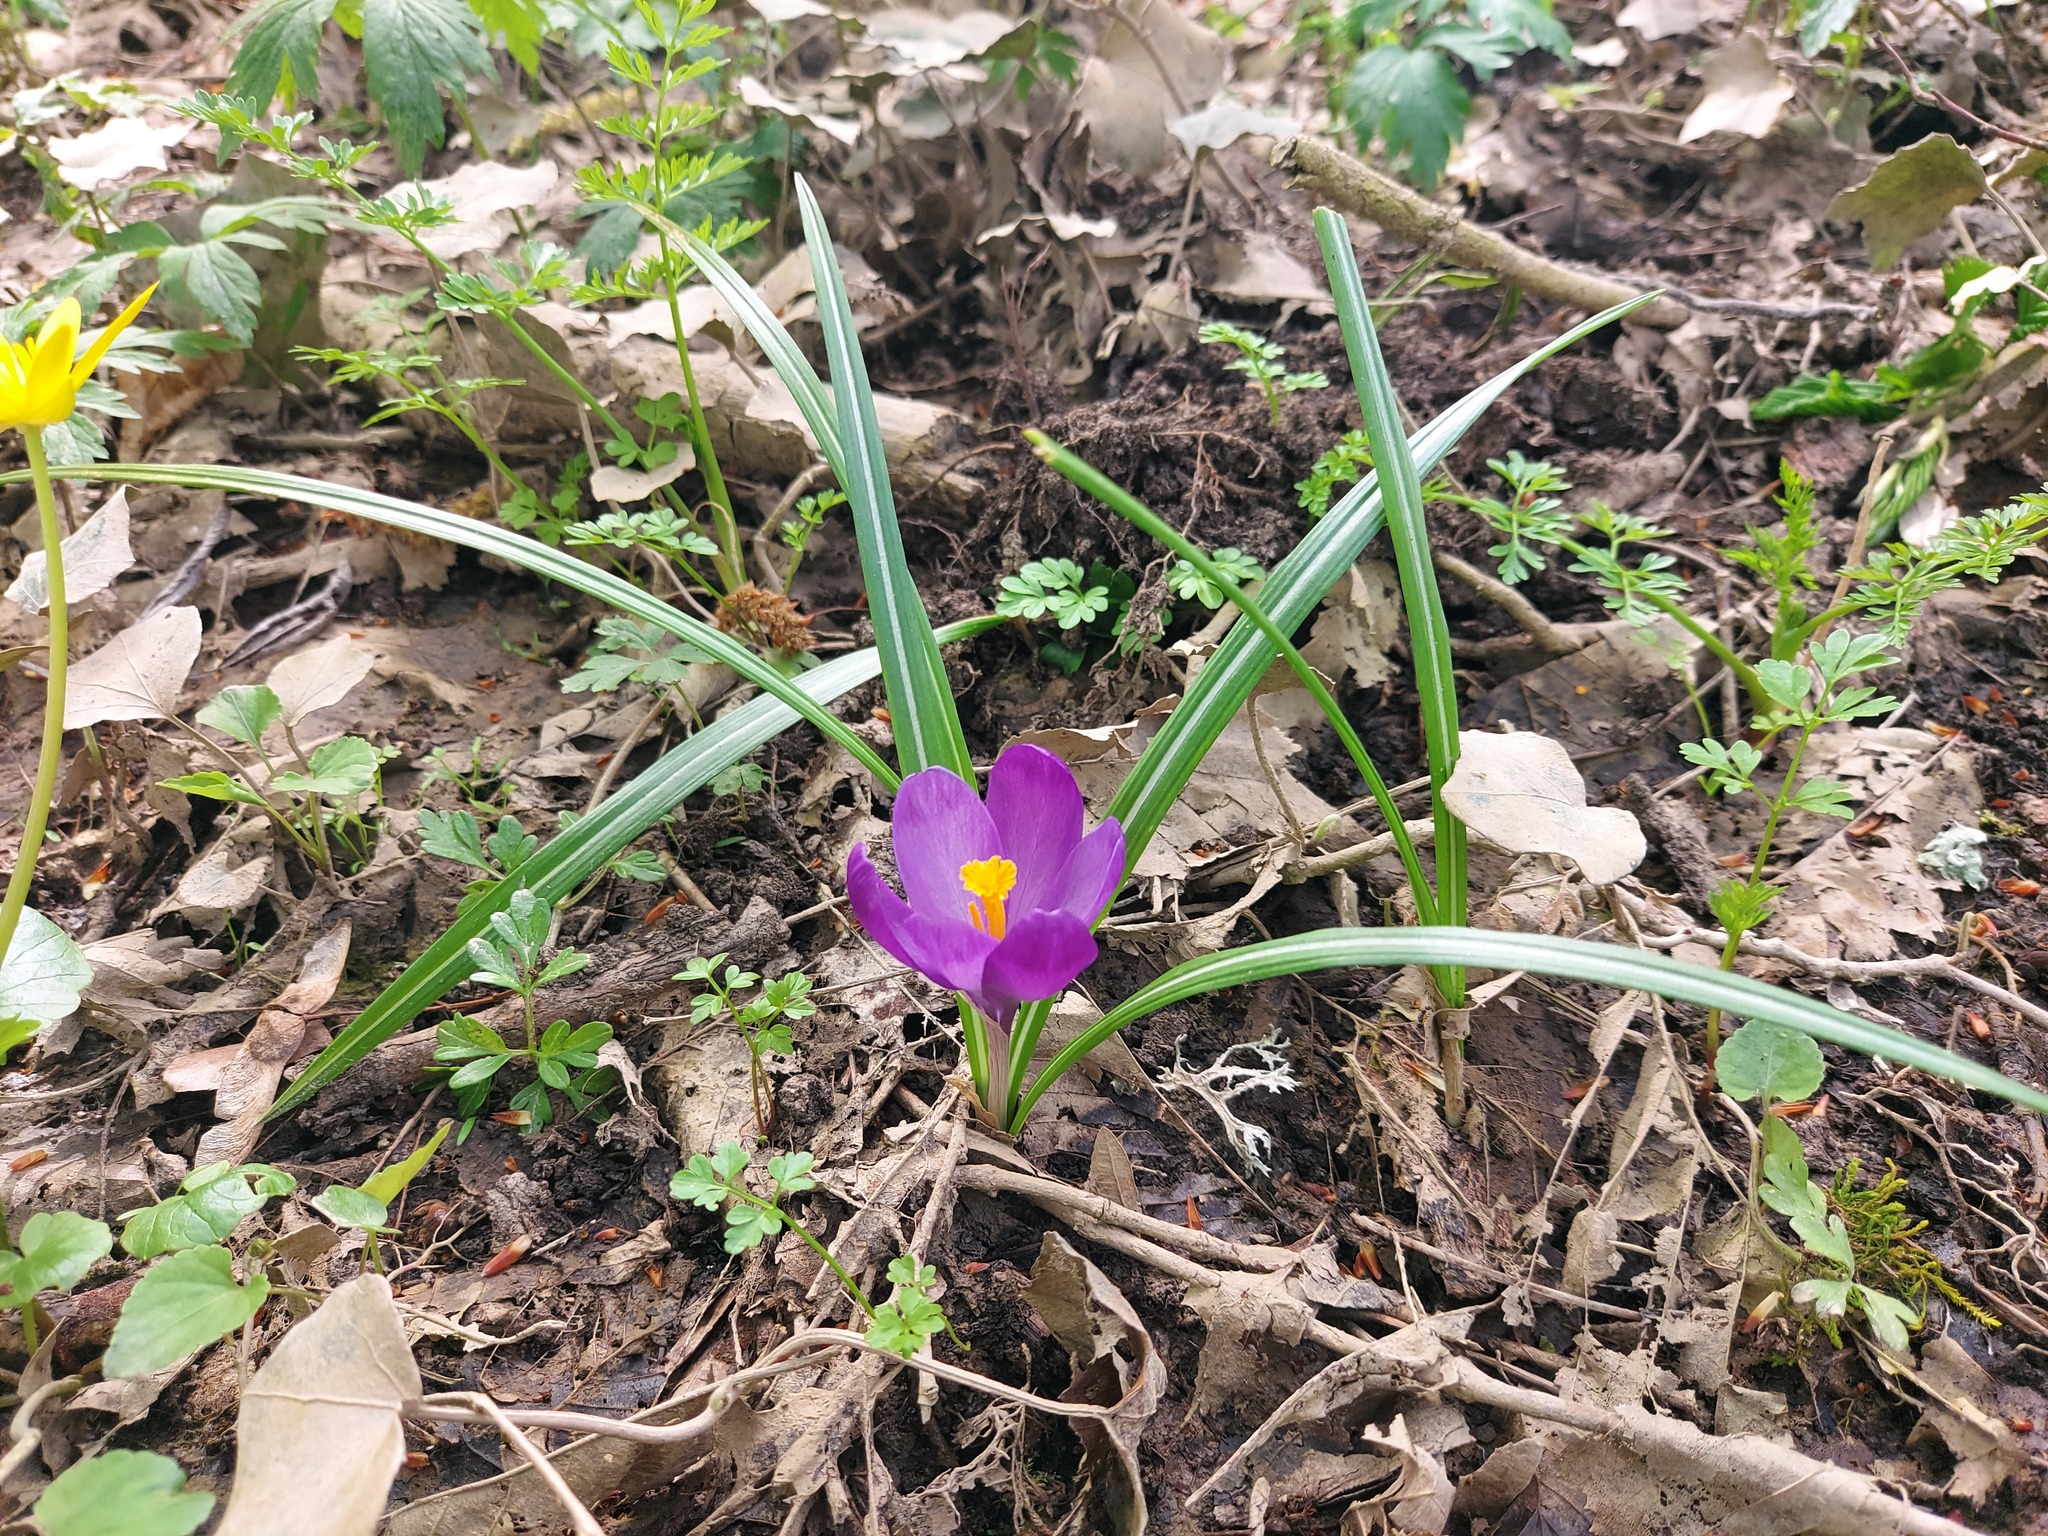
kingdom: Plantae
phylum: Tracheophyta
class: Liliopsida
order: Asparagales
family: Iridaceae
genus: Crocus
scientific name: Crocus heuffelianus
